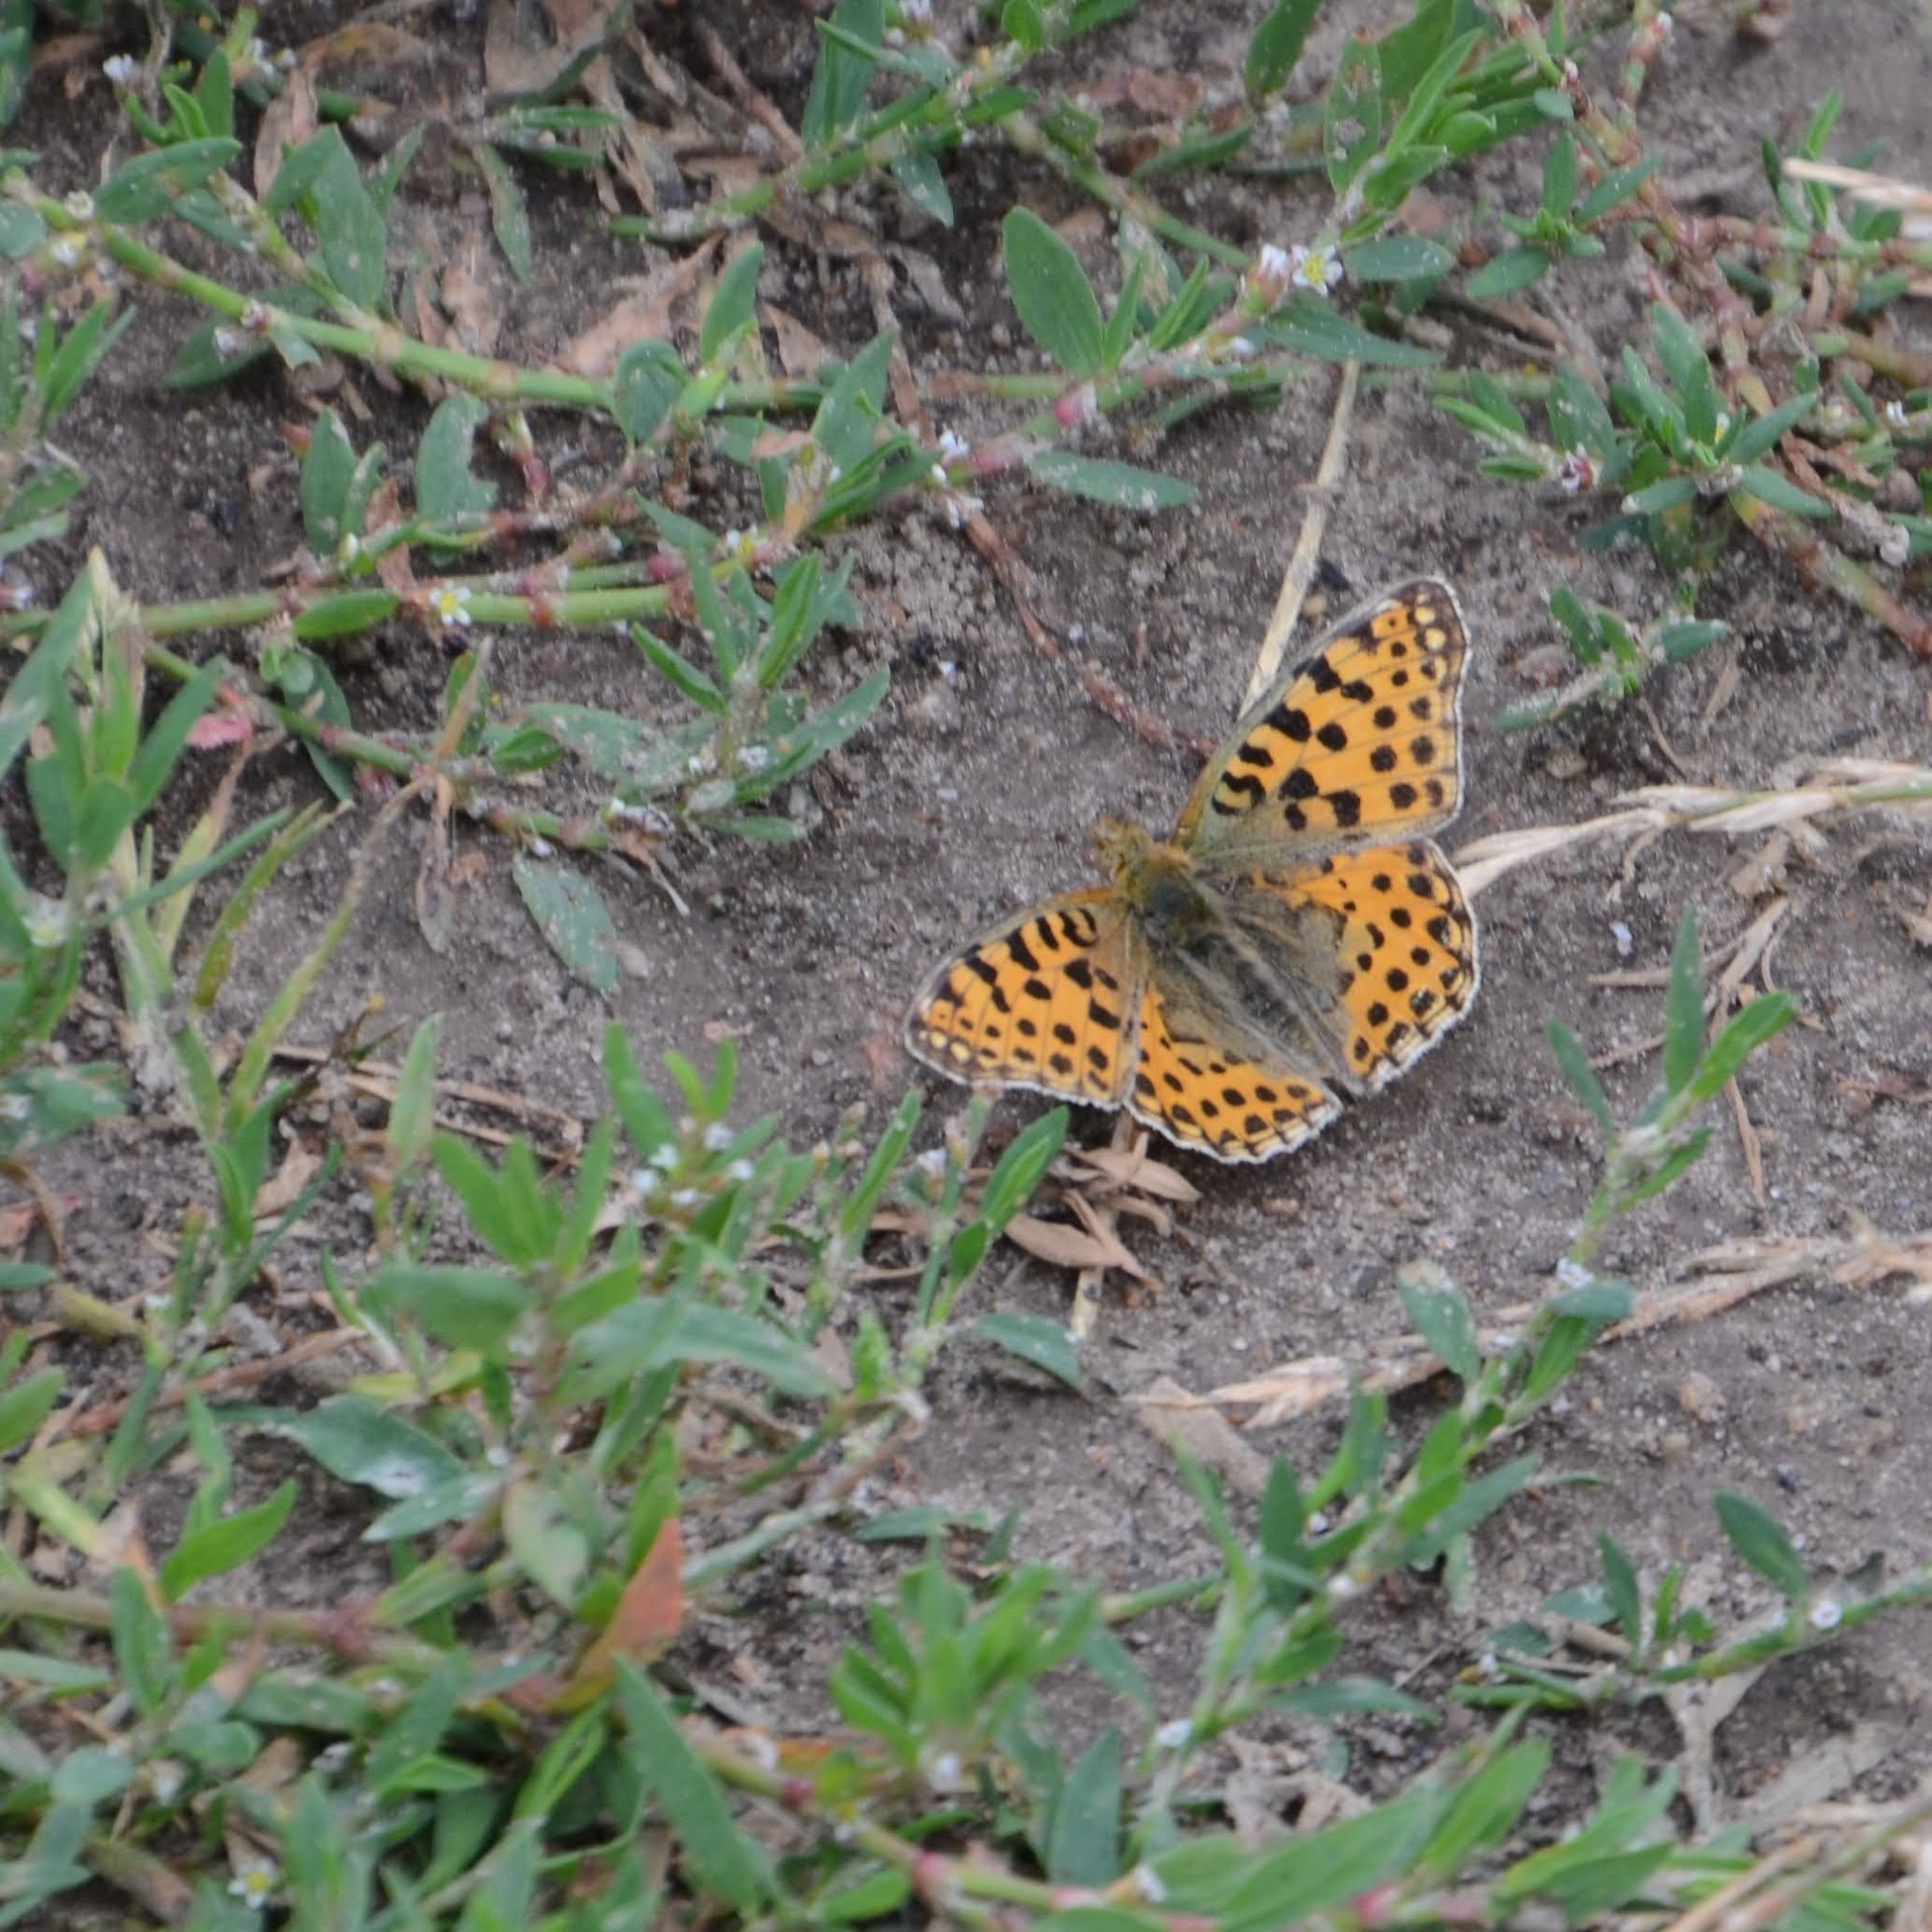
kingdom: Animalia
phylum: Arthropoda
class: Insecta
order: Lepidoptera
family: Nymphalidae
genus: Issoria
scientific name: Issoria lathonia
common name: Queen of spain fritillary
